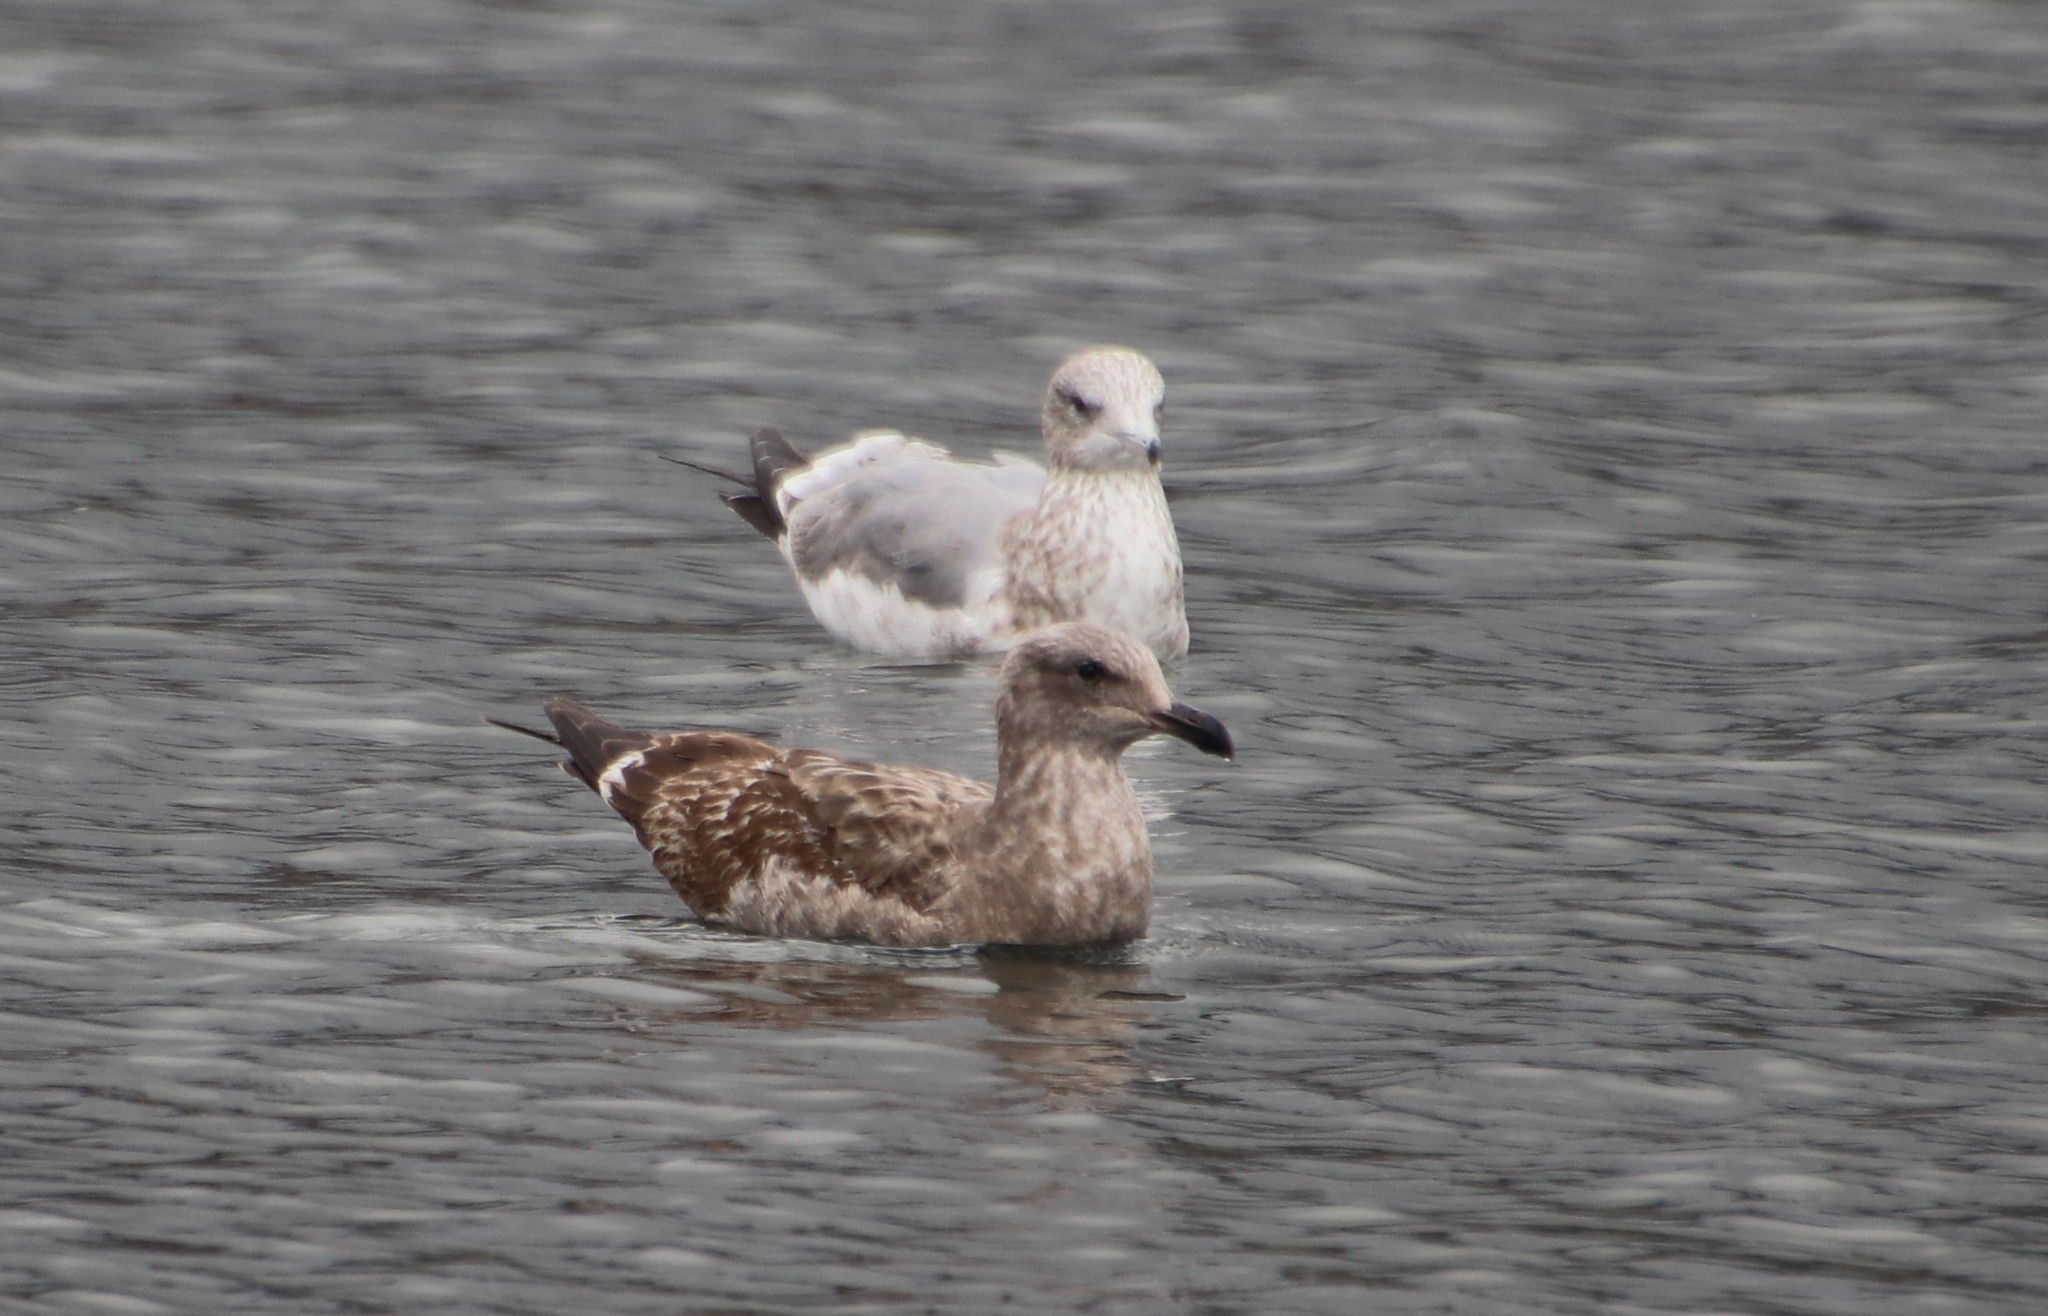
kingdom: Animalia
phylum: Chordata
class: Aves
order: Charadriiformes
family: Laridae
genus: Larus
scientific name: Larus occidentalis
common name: Western gull
